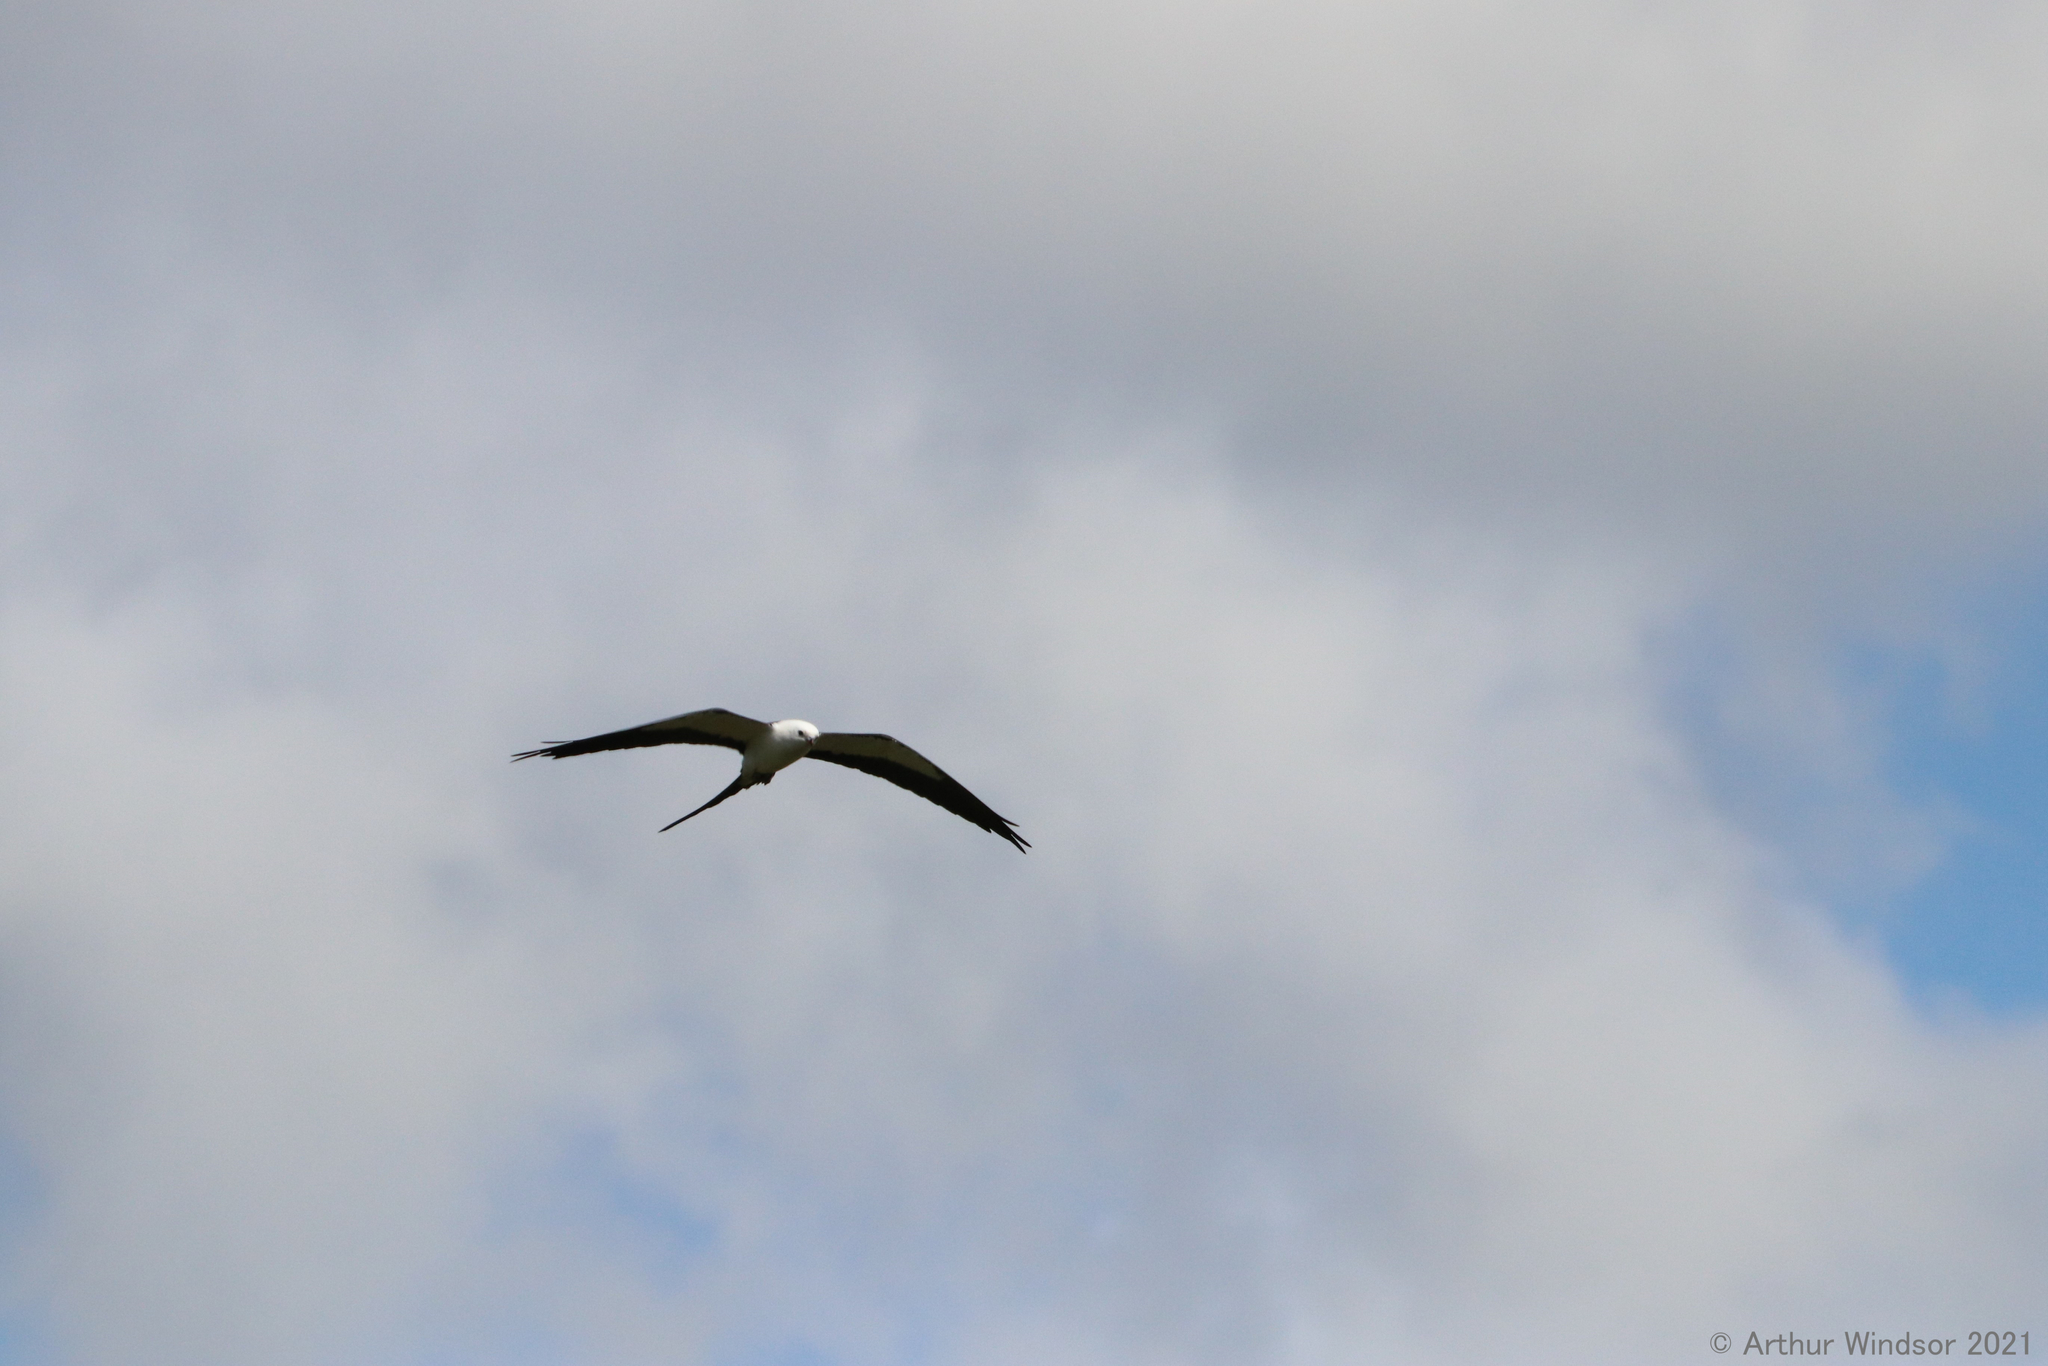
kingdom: Animalia
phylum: Chordata
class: Aves
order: Accipitriformes
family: Accipitridae
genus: Elanoides
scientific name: Elanoides forficatus
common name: Swallow-tailed kite
